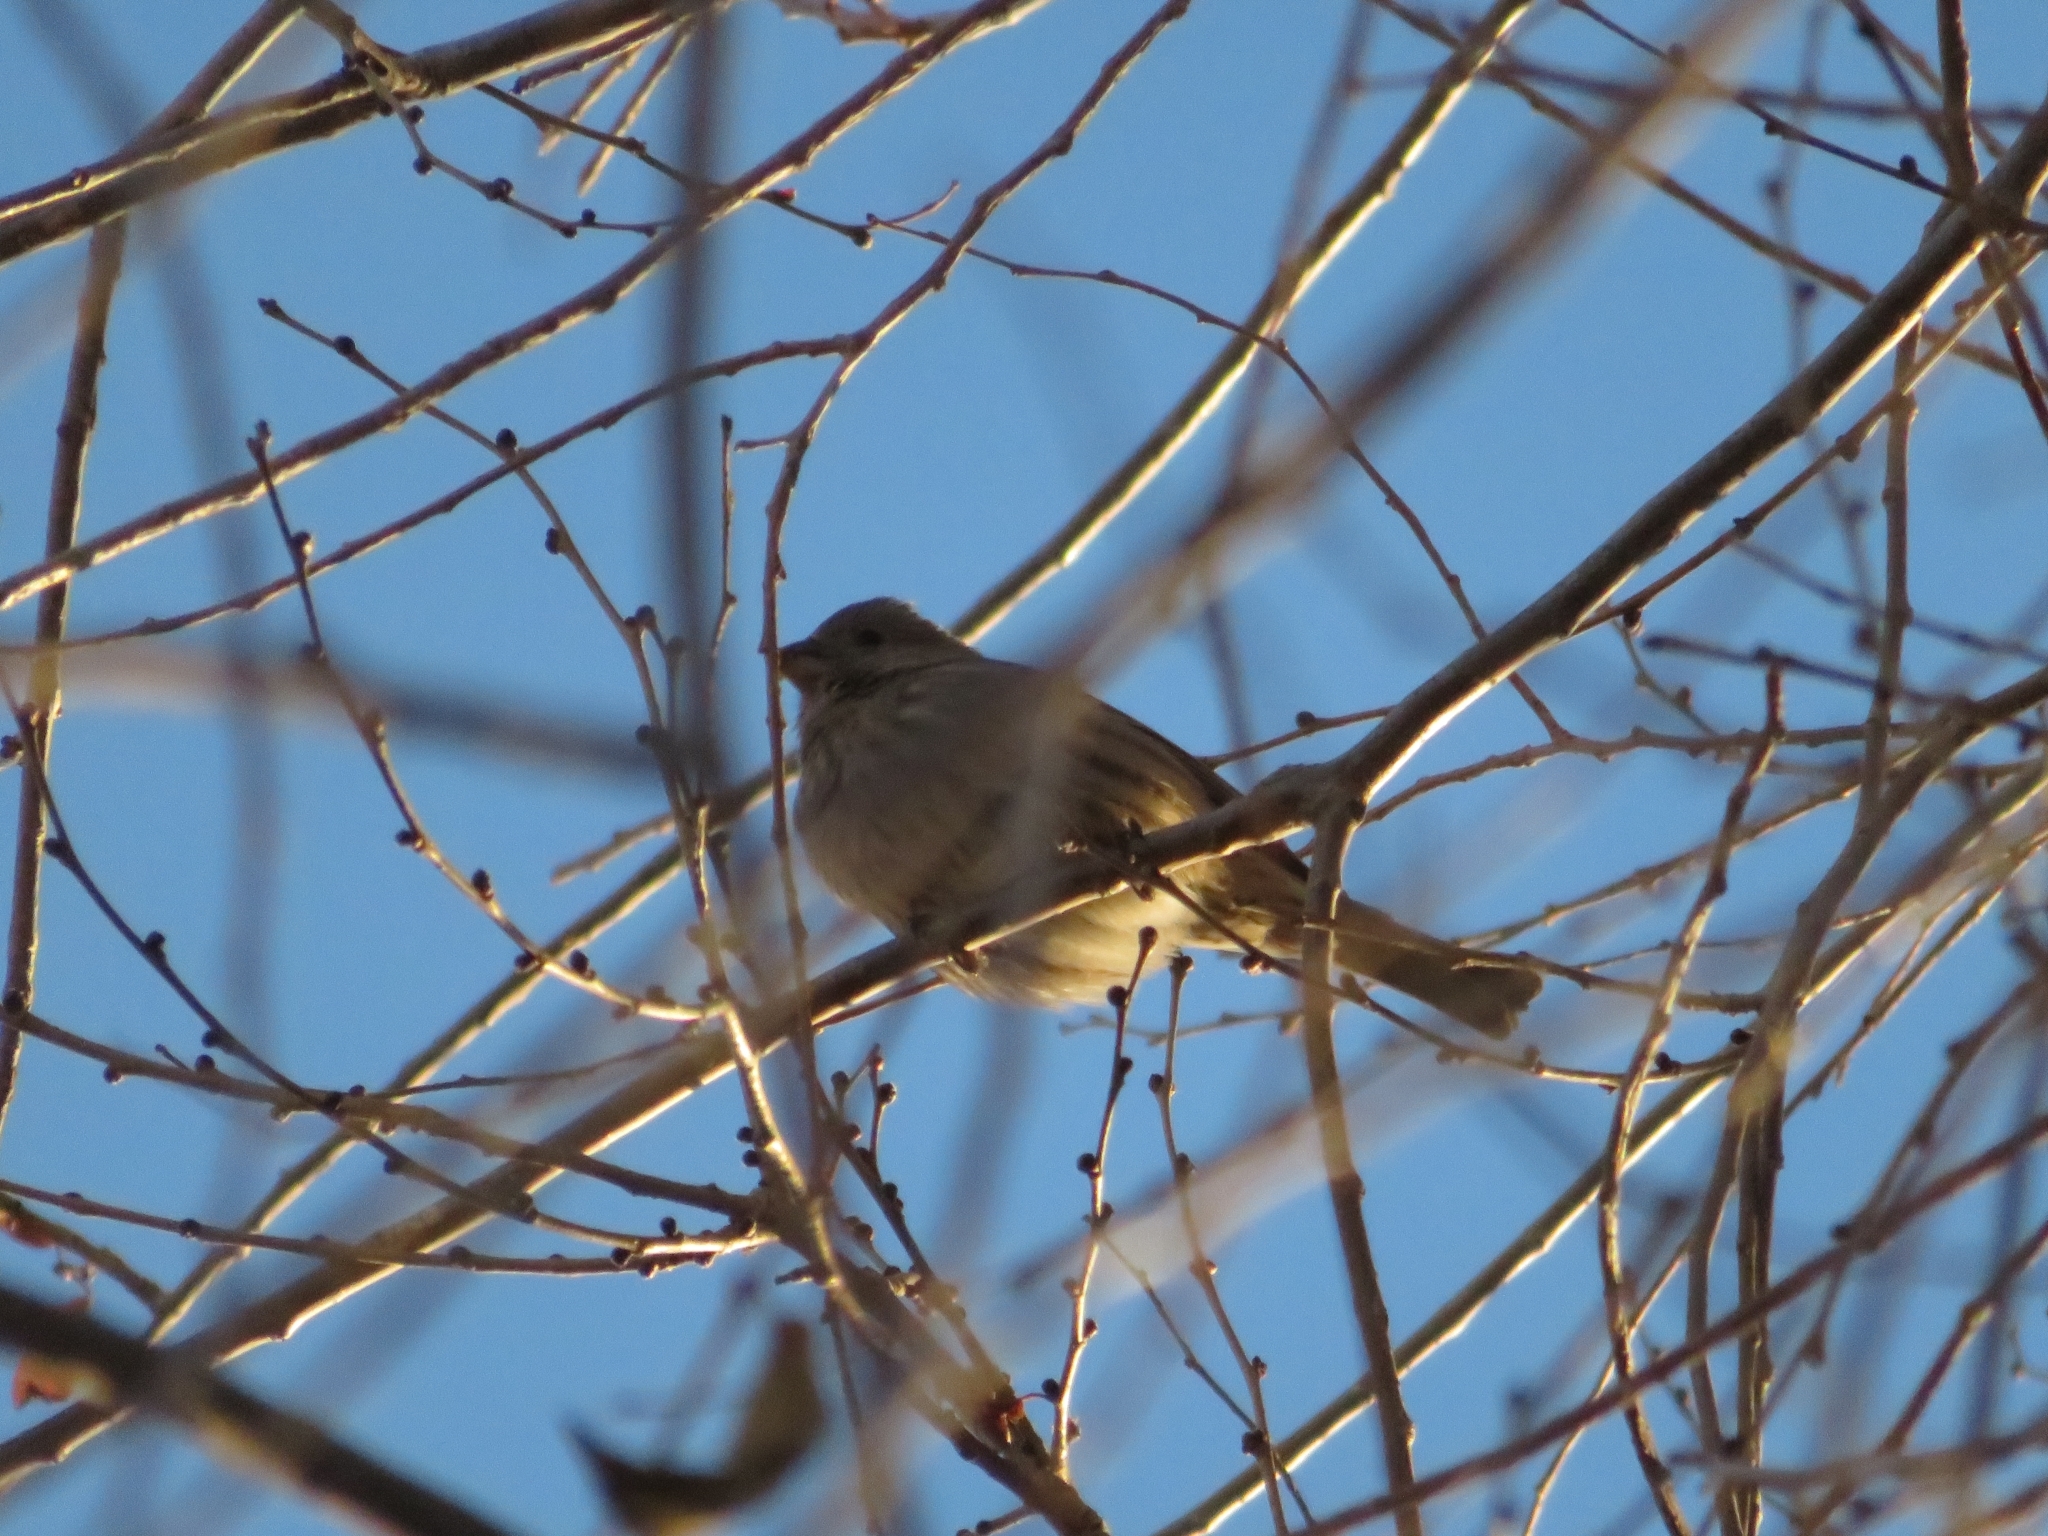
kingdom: Animalia
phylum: Chordata
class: Aves
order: Passeriformes
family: Fringillidae
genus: Haemorhous
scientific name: Haemorhous mexicanus
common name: House finch
